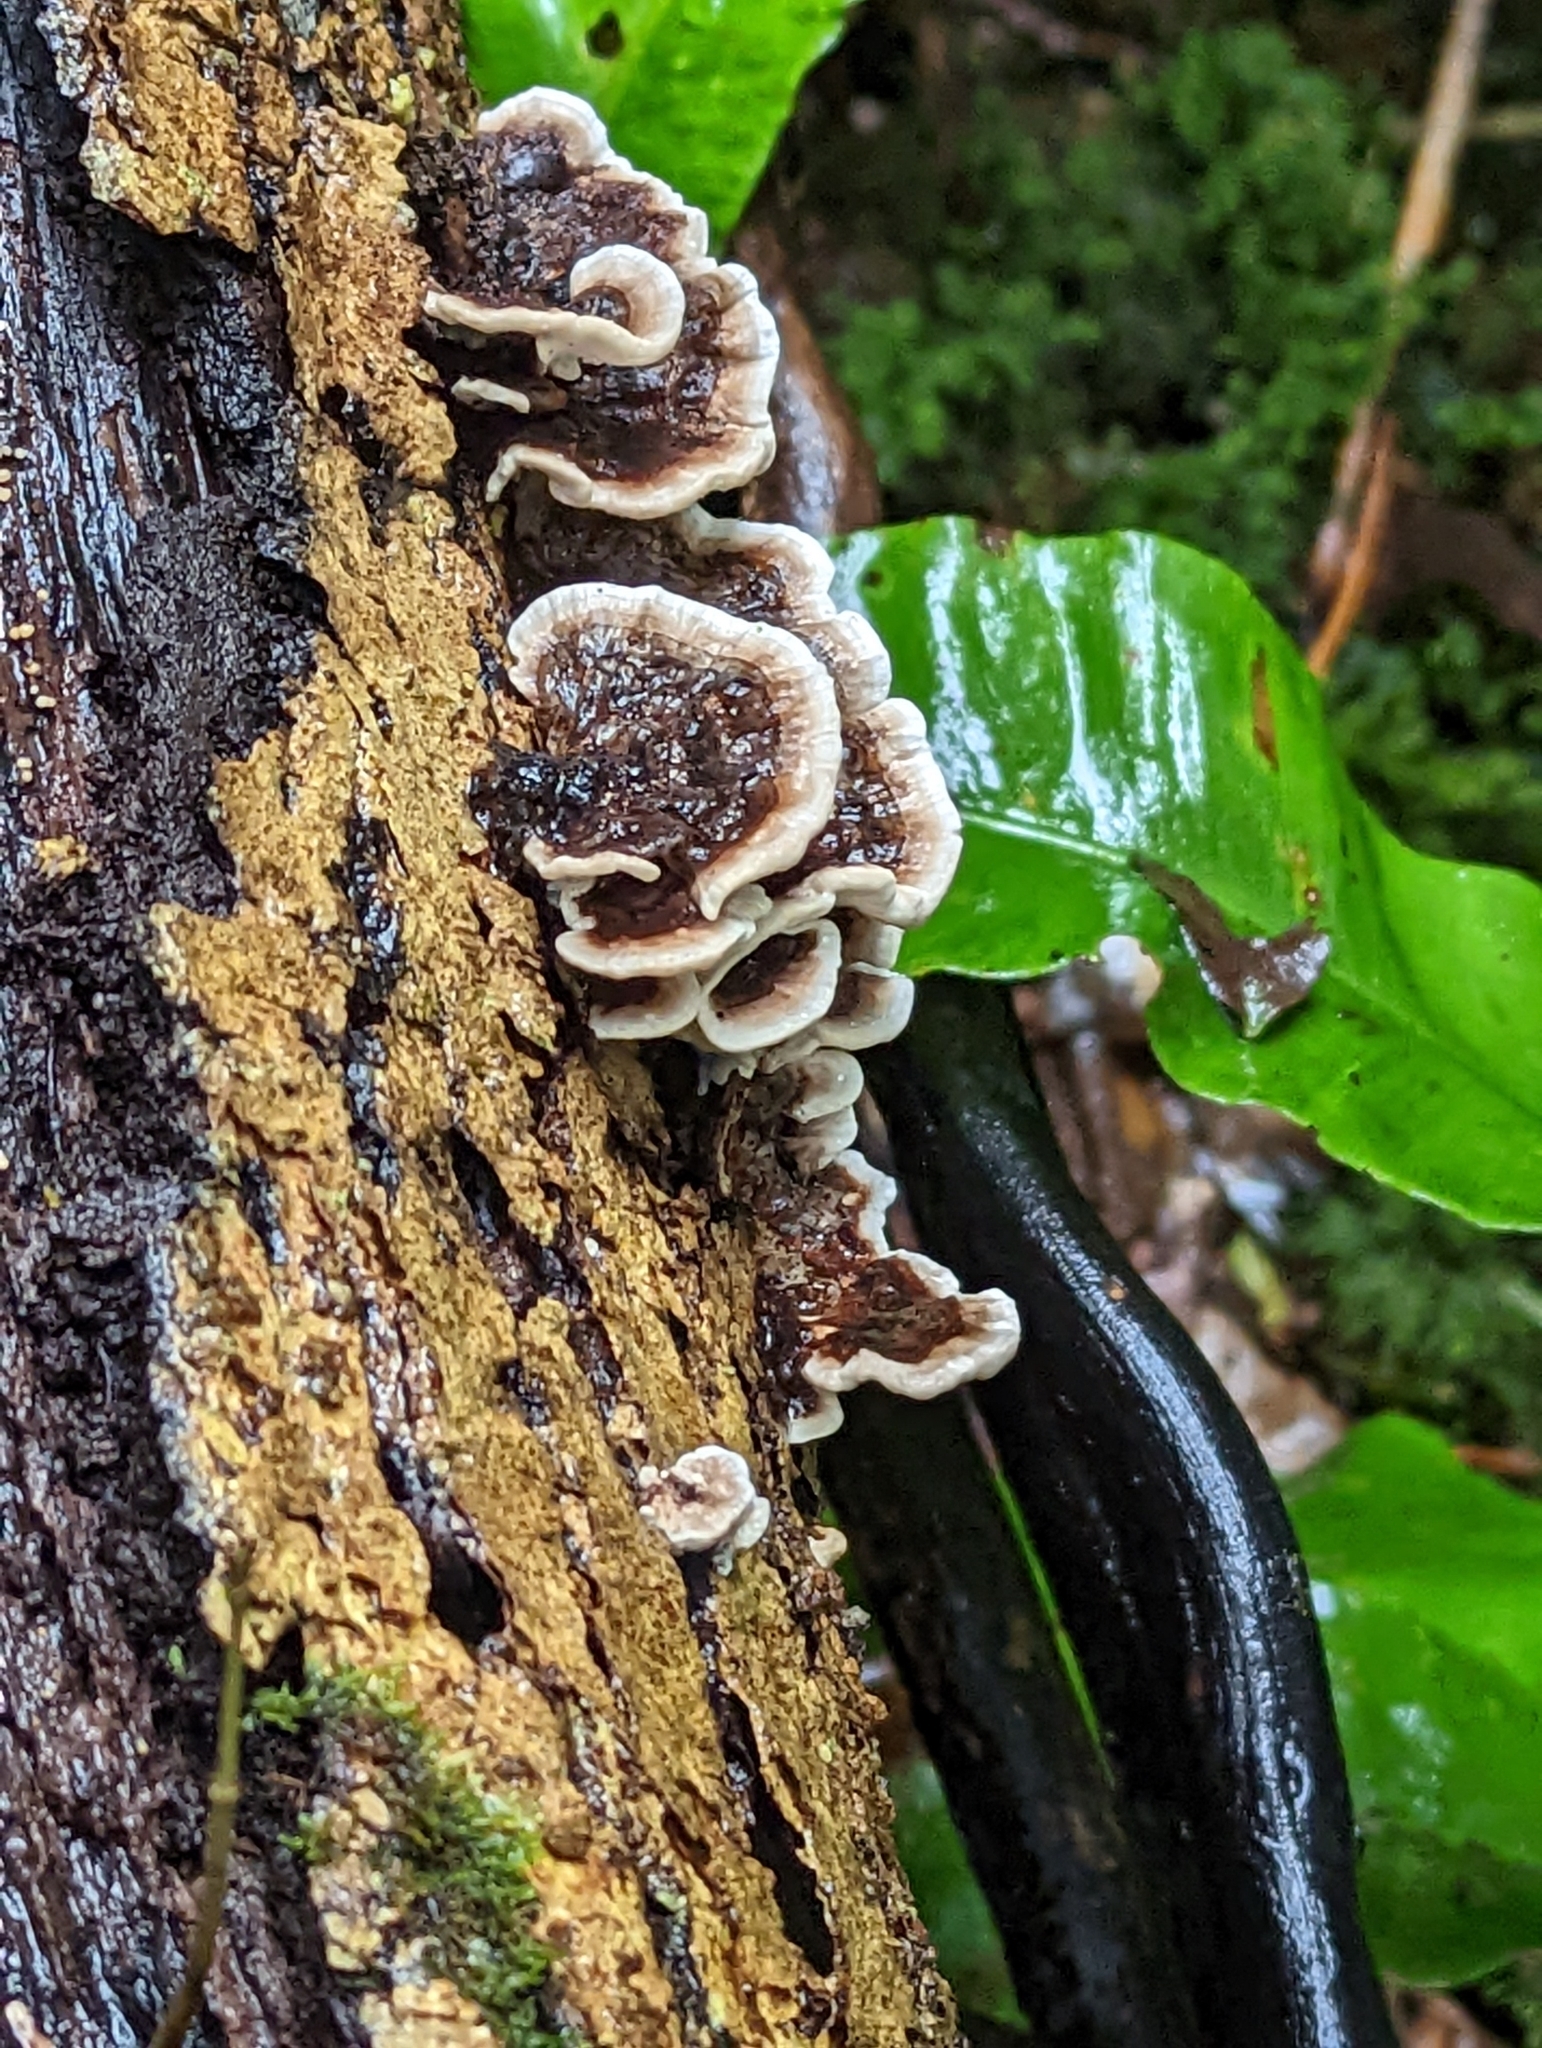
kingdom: Fungi
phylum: Basidiomycota
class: Agaricomycetes
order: Polyporales
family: Polyporaceae
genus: Trametes
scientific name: Trametes versicolor
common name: Turkeytail
